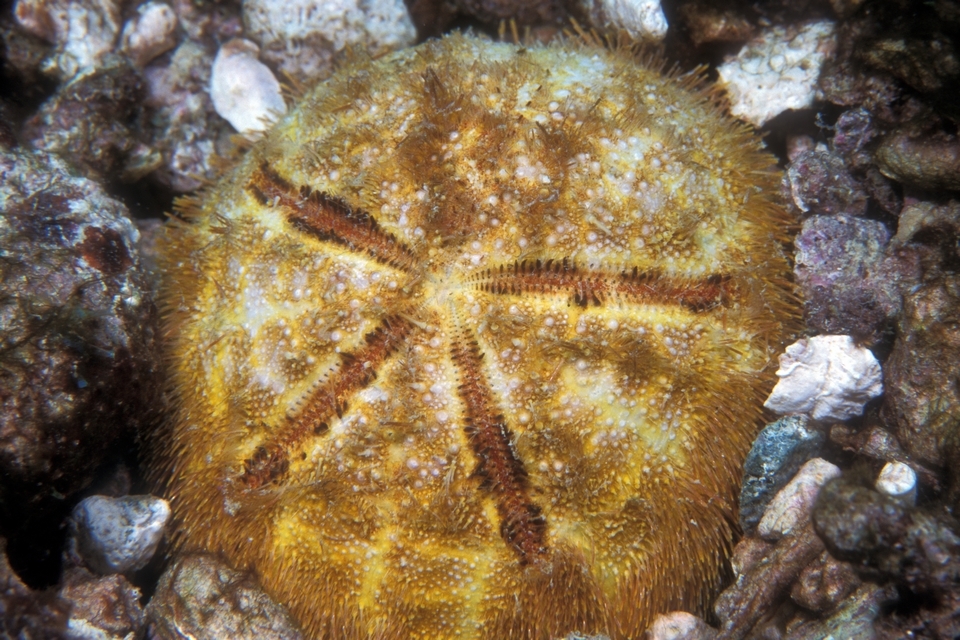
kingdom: Animalia
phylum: Echinodermata
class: Echinoidea
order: Spatangoida
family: Brissidae
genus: Meoma
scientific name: Meoma ventricosa
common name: Large heart urchin
